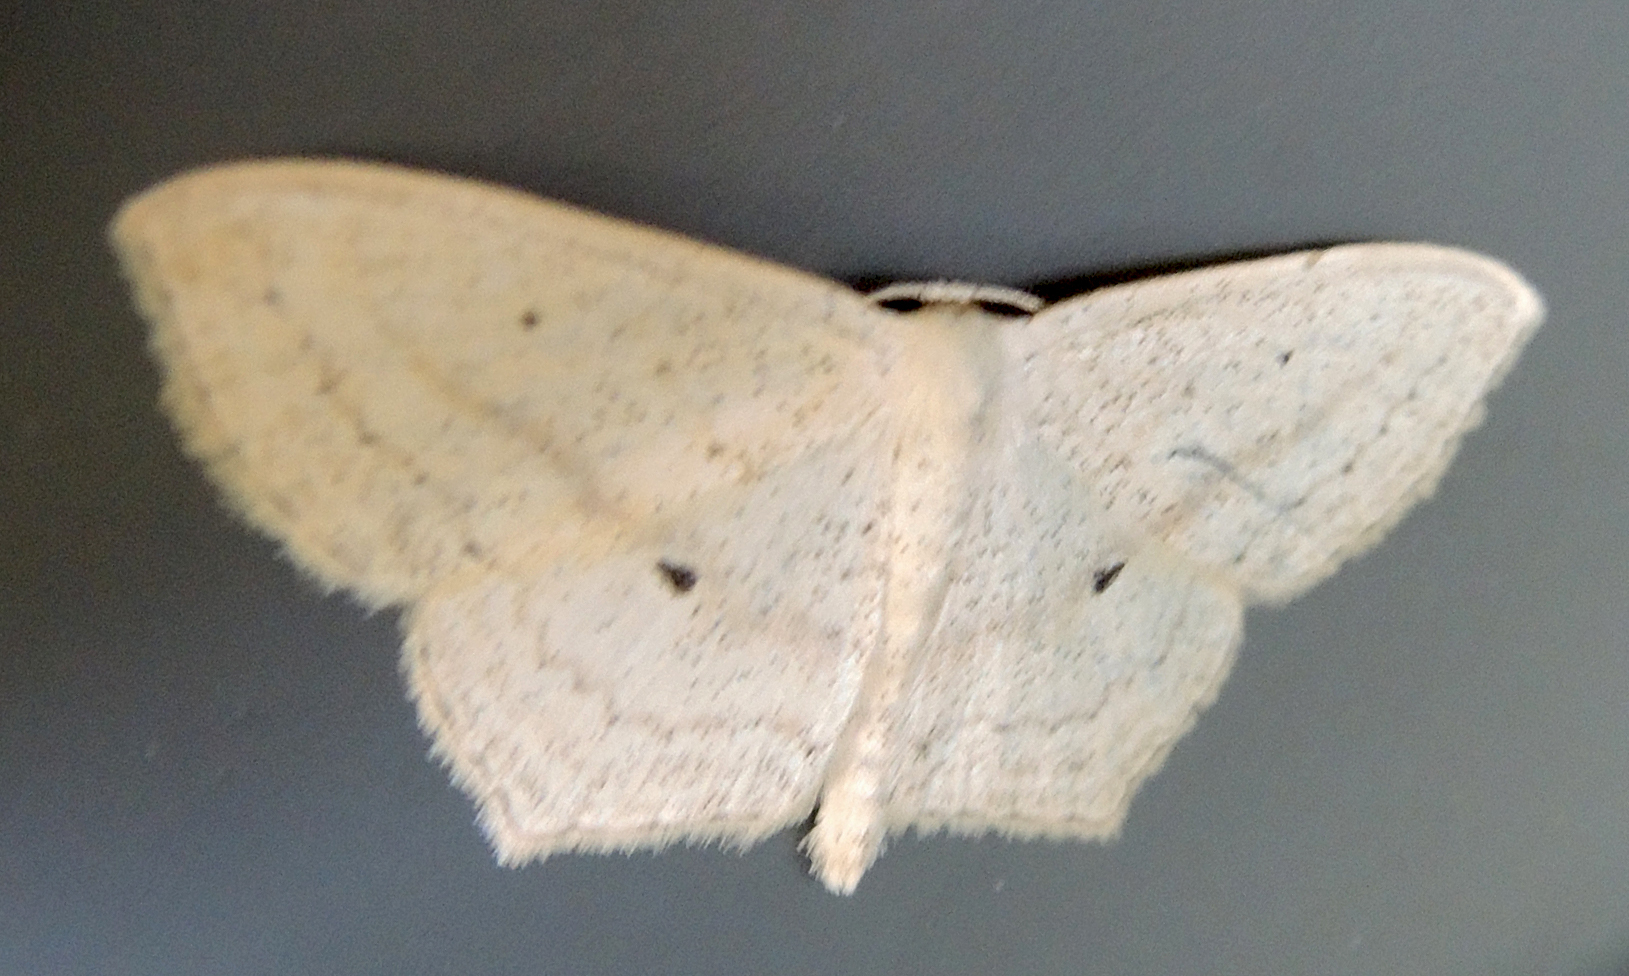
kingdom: Animalia
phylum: Arthropoda
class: Insecta
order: Lepidoptera
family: Geometridae
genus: Scopula
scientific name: Scopula flaccidaria
